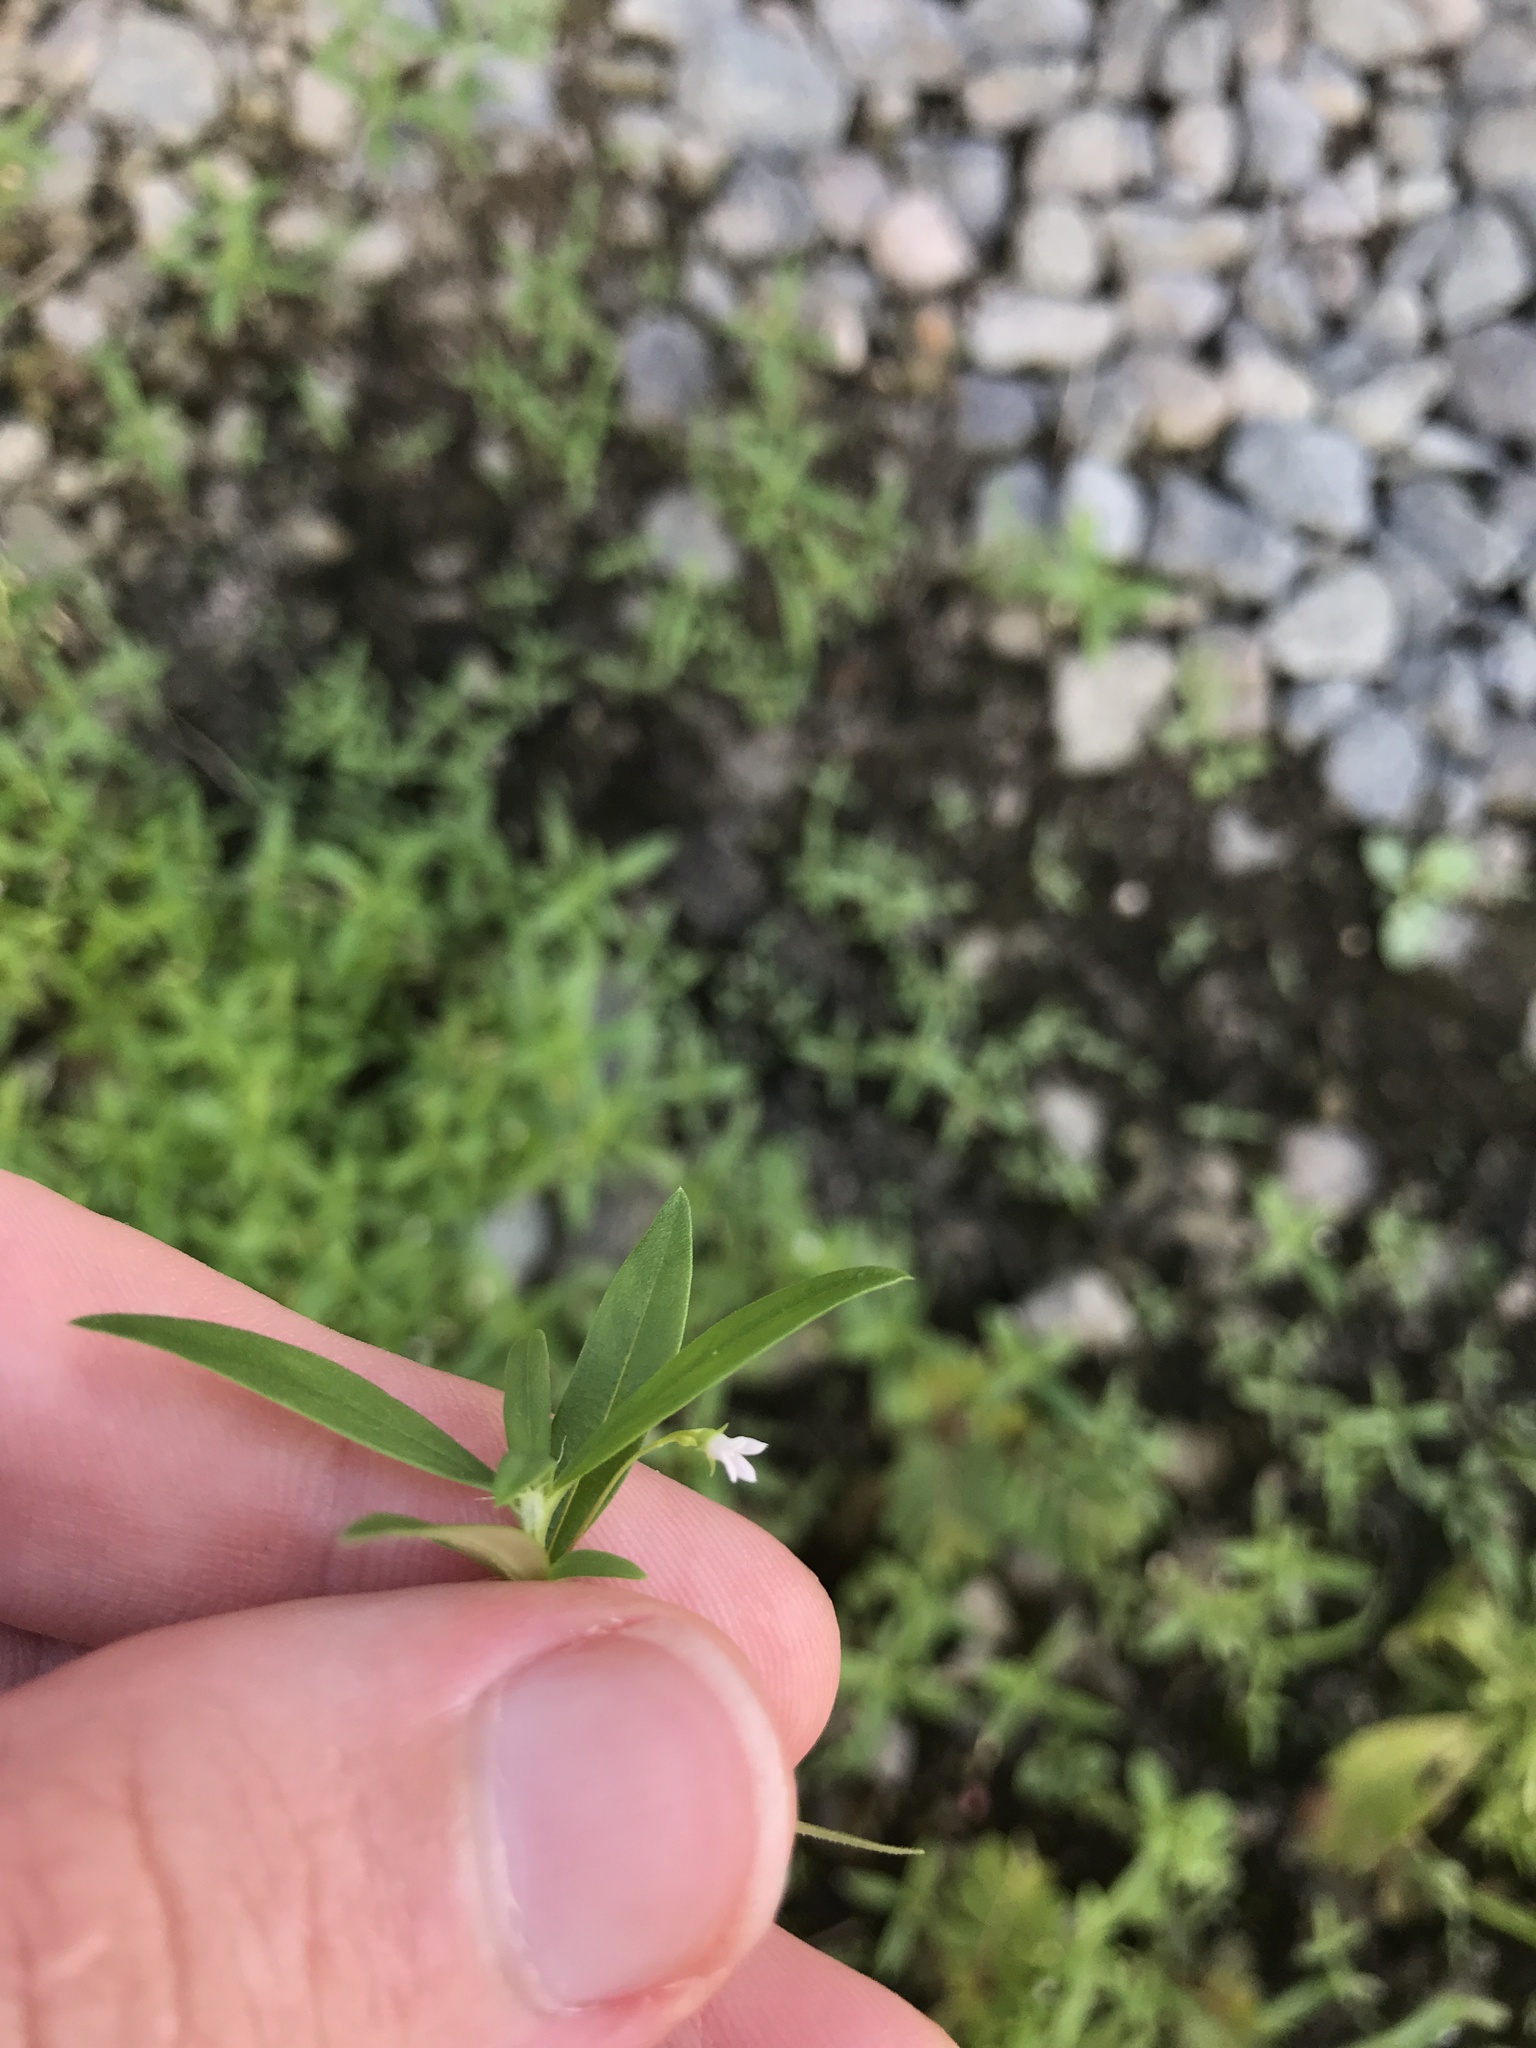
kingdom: Plantae
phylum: Tracheophyta
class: Magnoliopsida
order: Gentianales
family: Rubiaceae
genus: Oldenlandia
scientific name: Oldenlandia corymbosa
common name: Flat-top mille graines
